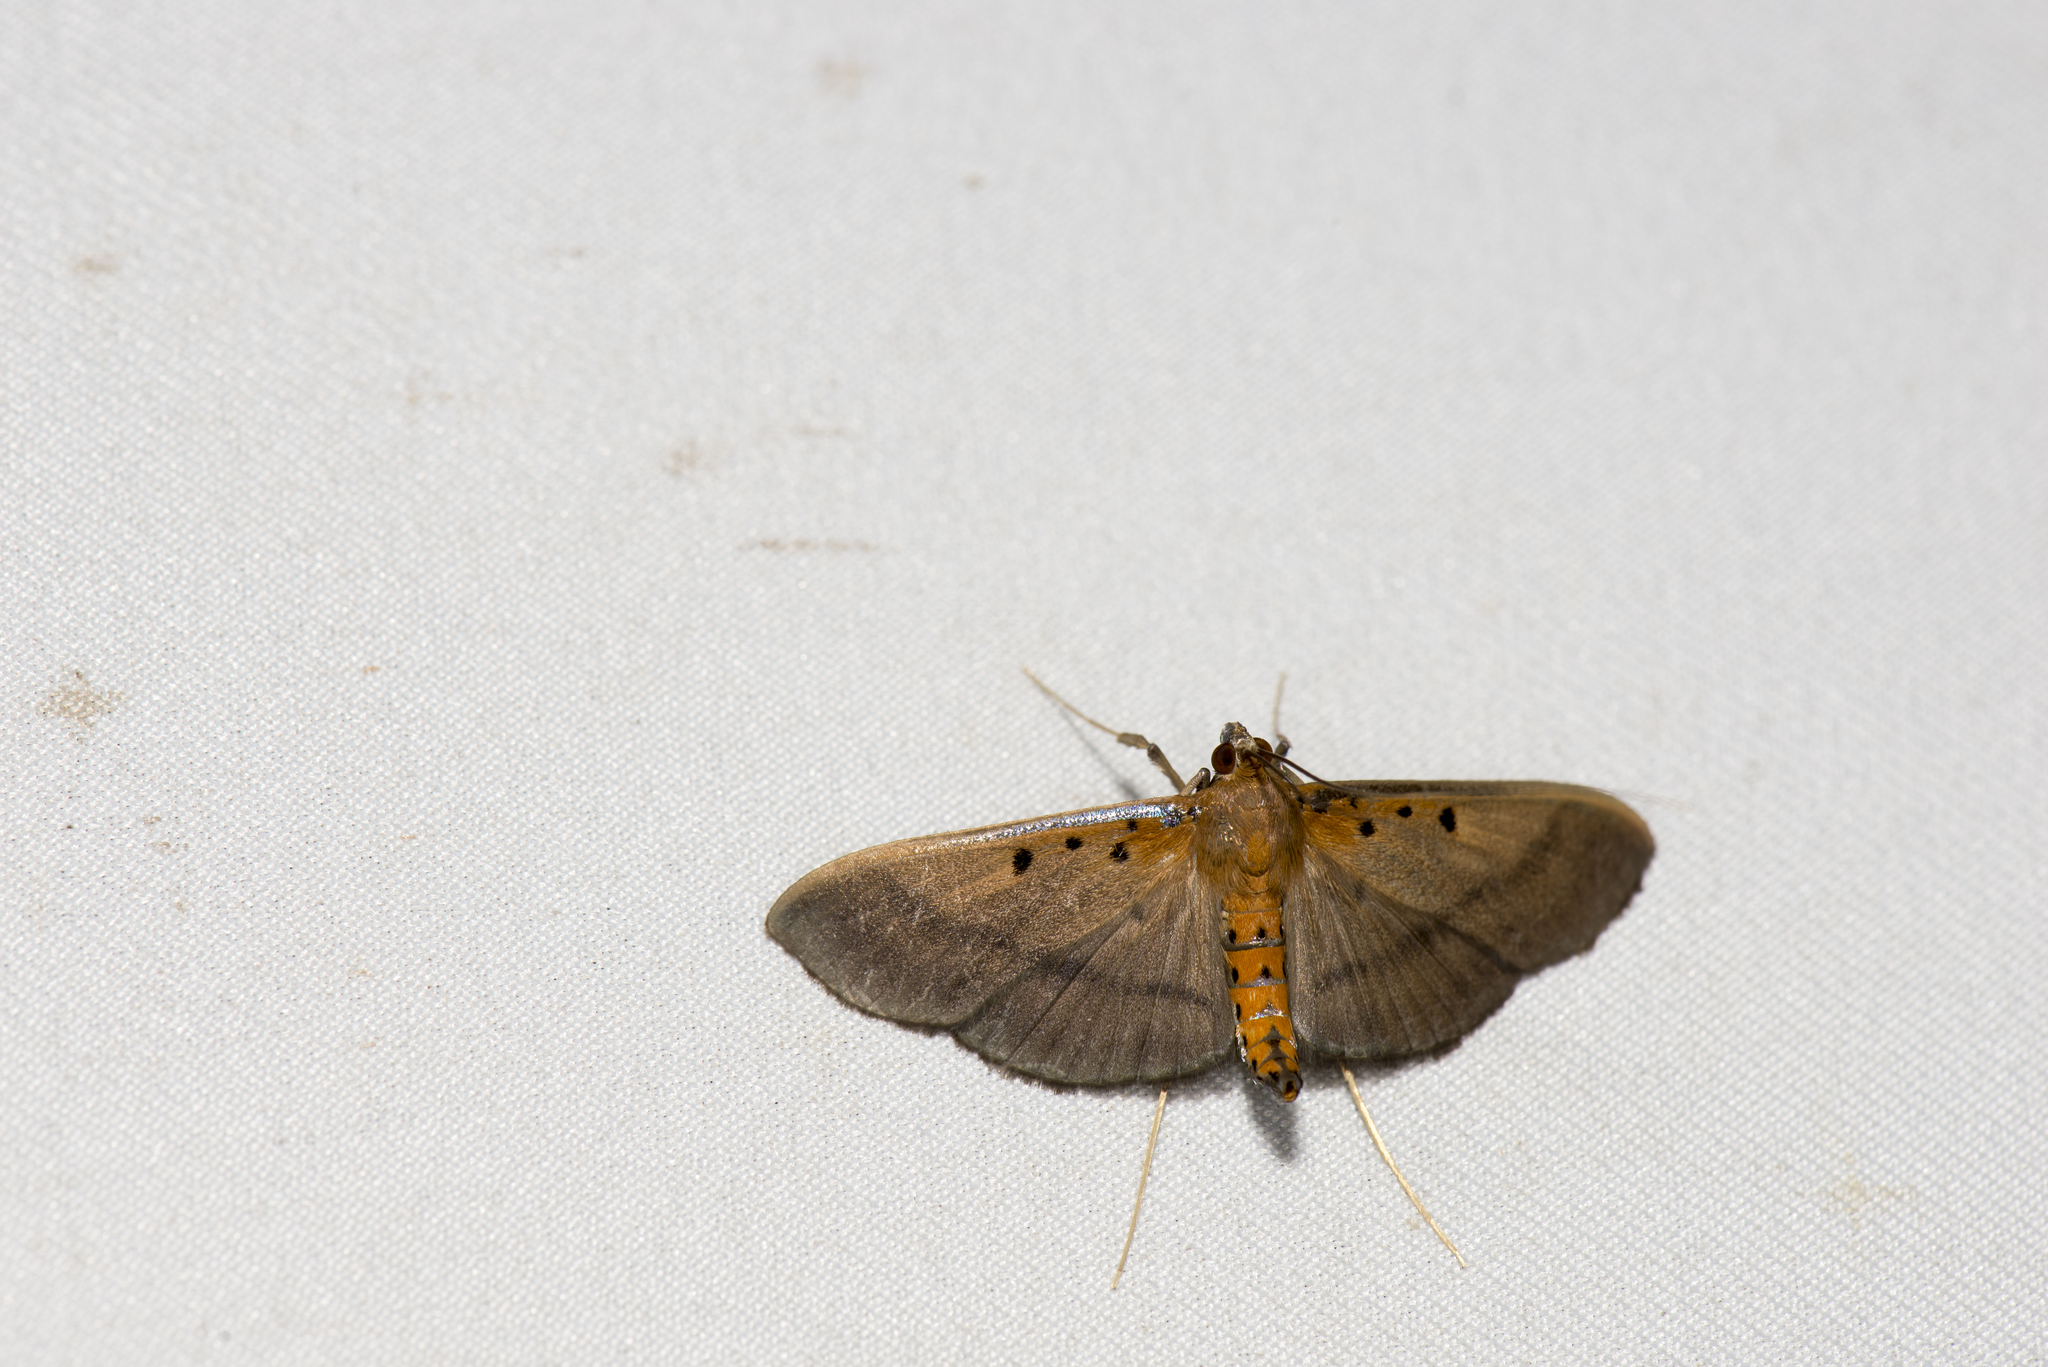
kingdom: Animalia
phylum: Arthropoda
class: Insecta
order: Lepidoptera
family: Crambidae
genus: Filodes
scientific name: Filodes fulvidorsalis
